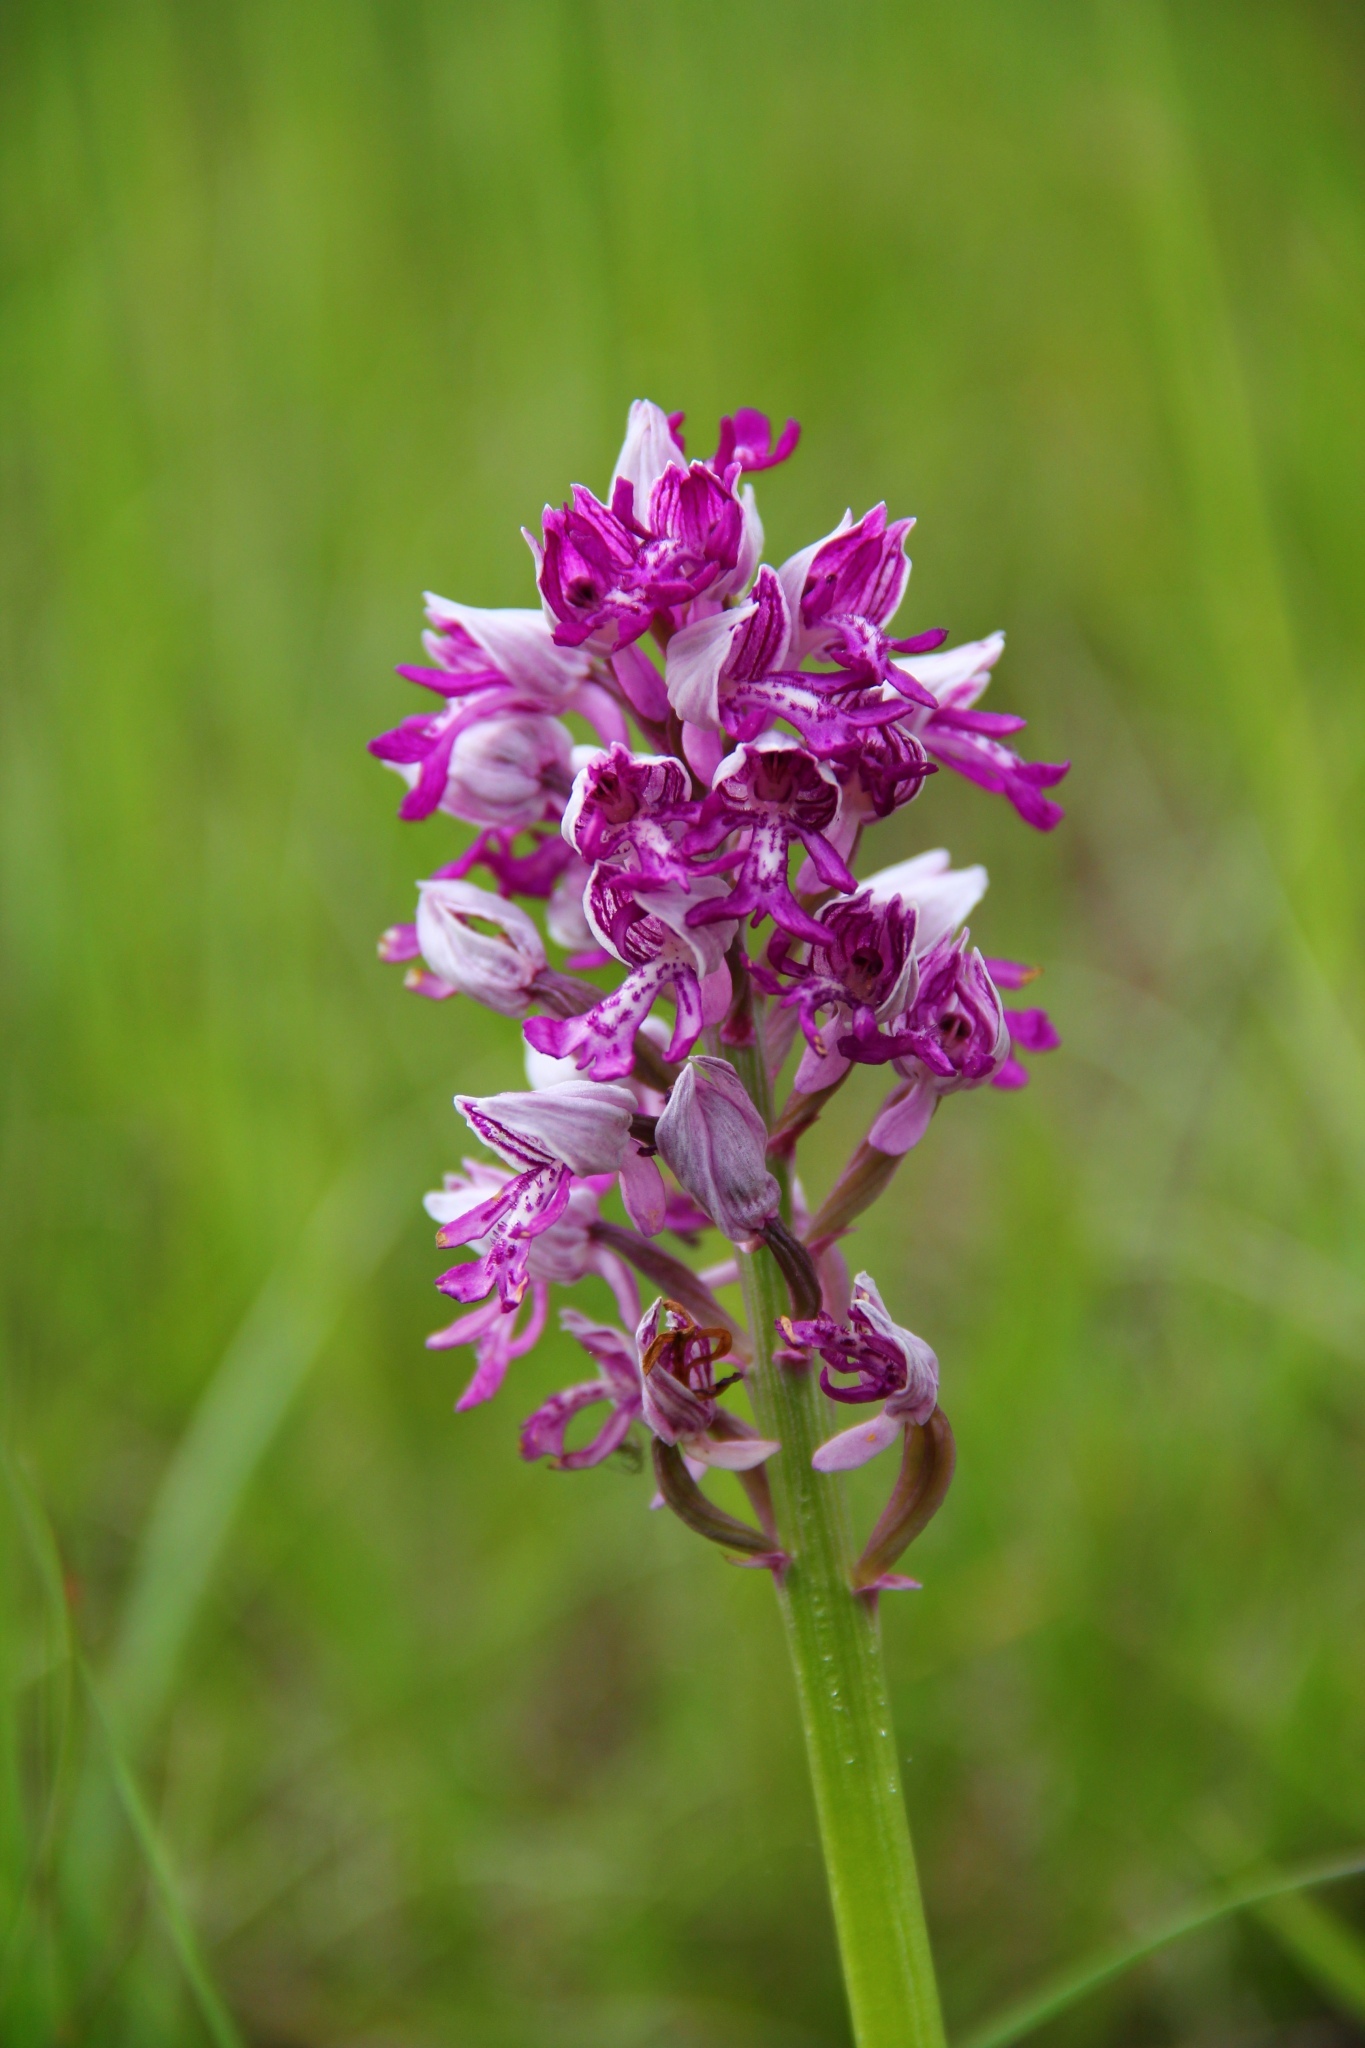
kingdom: Plantae
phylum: Tracheophyta
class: Liliopsida
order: Asparagales
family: Orchidaceae
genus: Orchis
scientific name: Orchis militaris
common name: Military orchid
